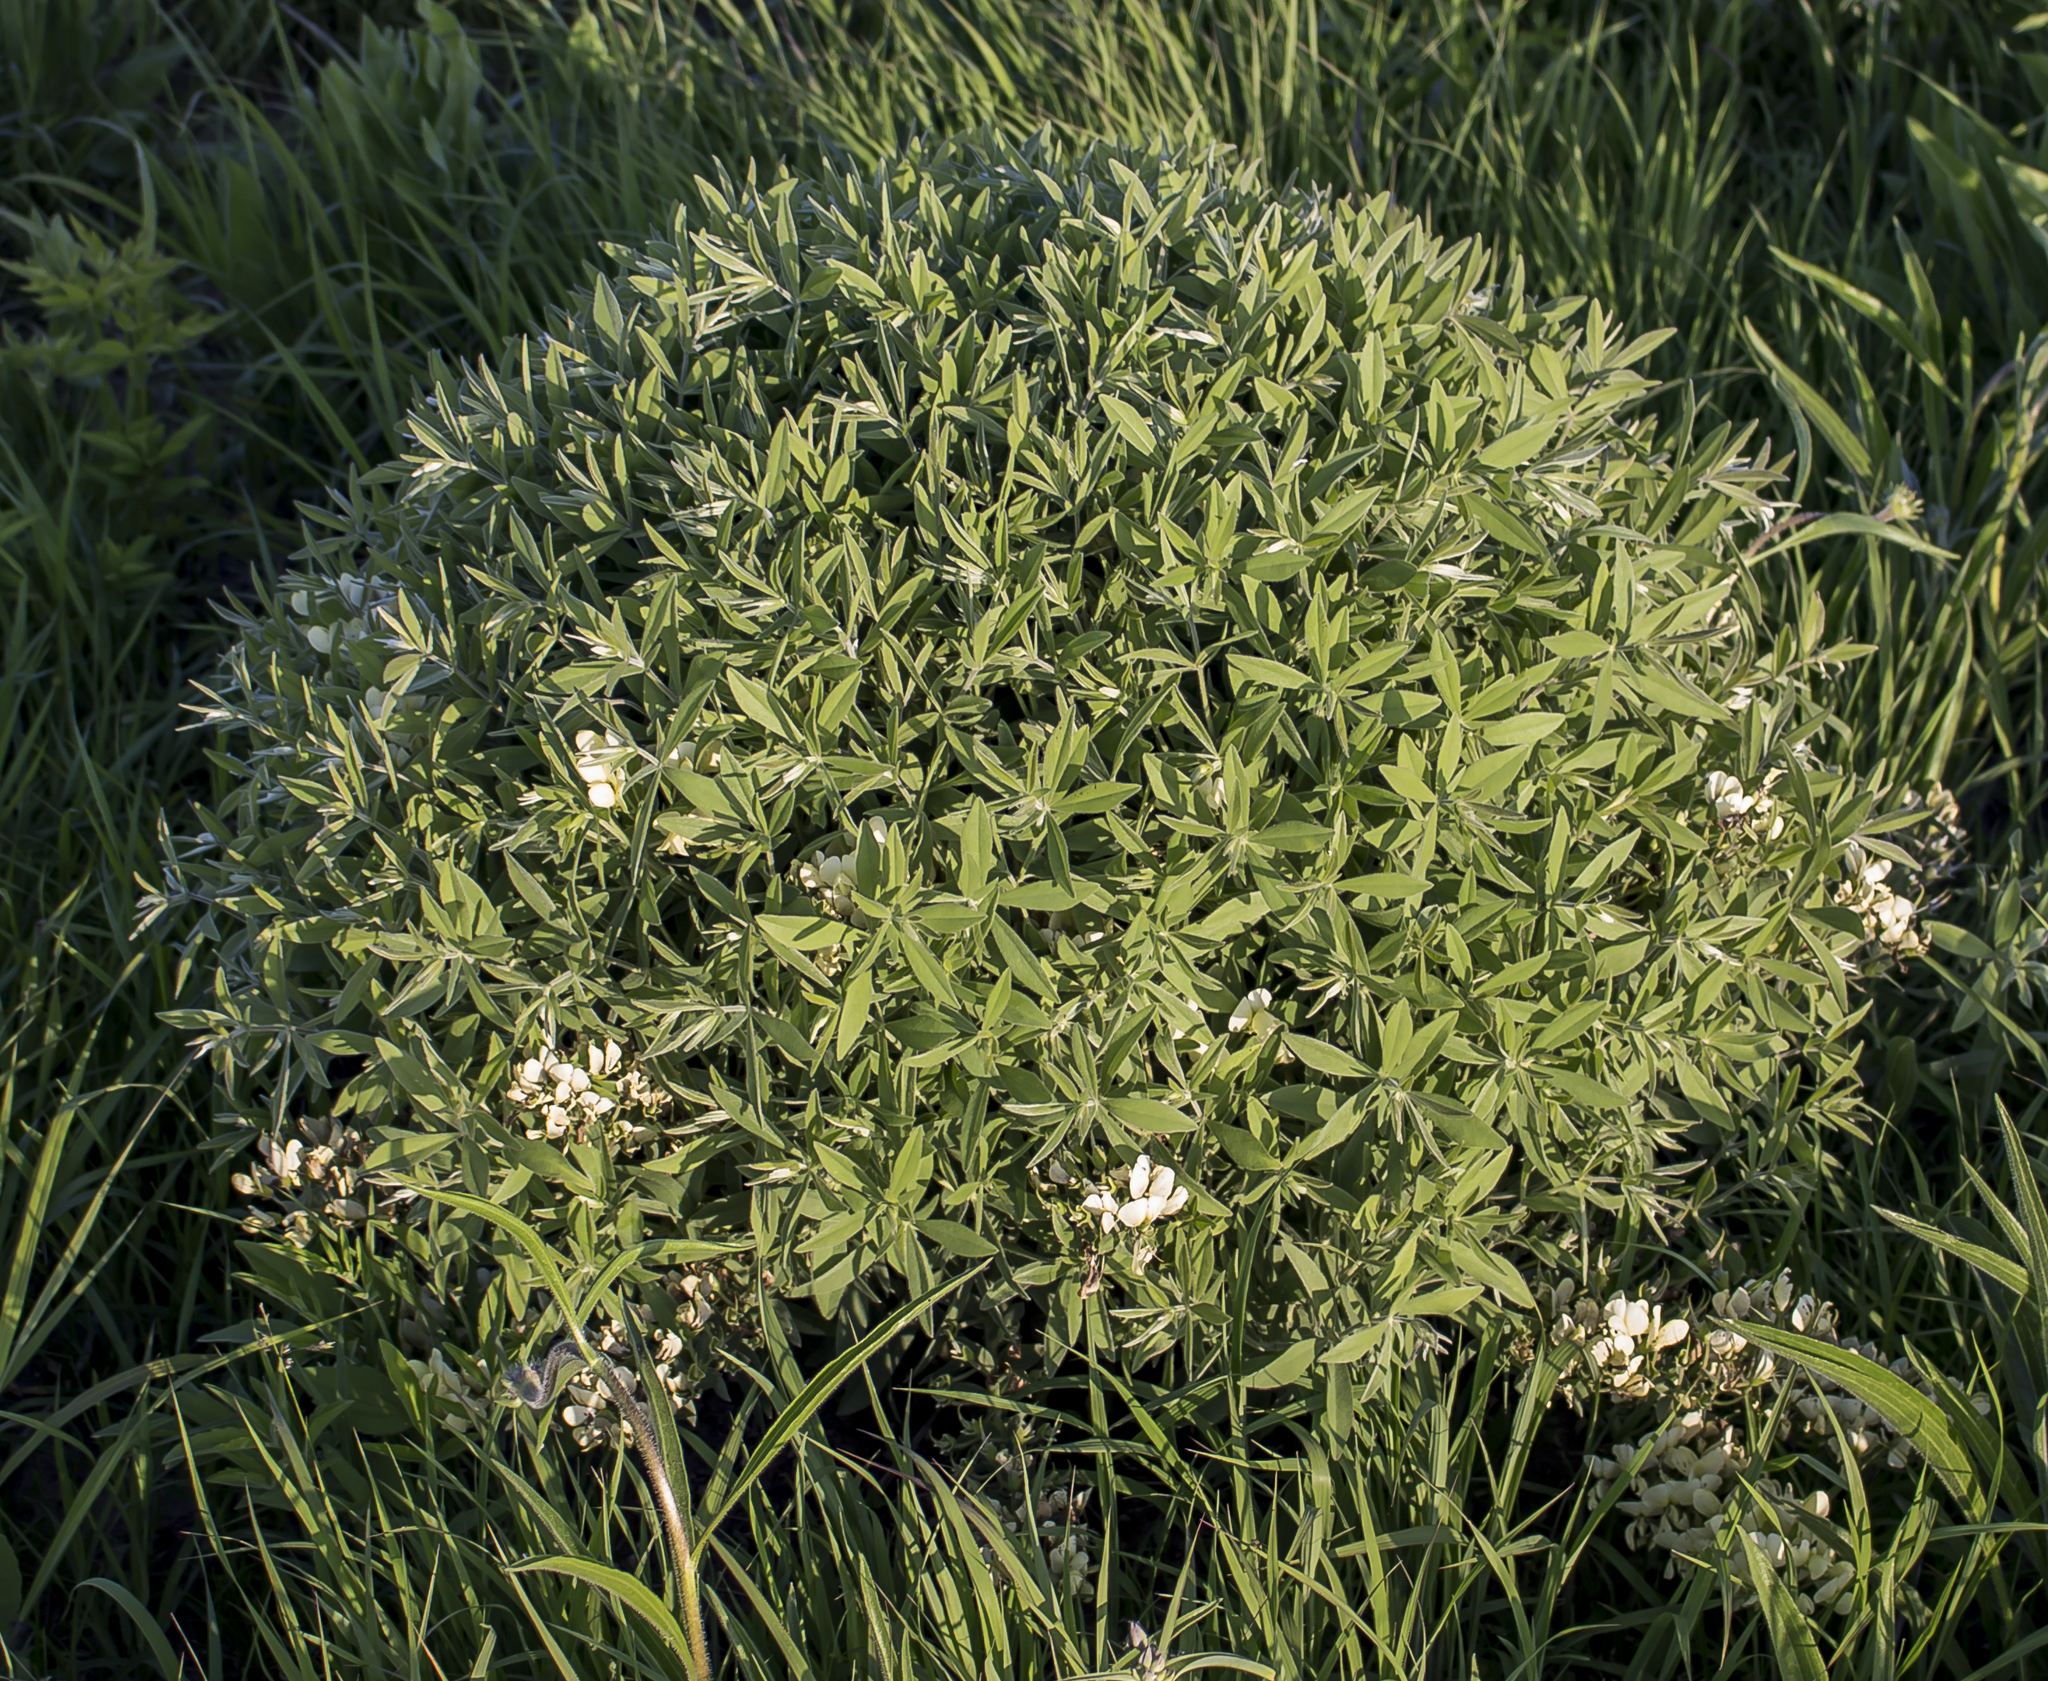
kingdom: Plantae
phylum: Tracheophyta
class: Magnoliopsida
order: Fabales
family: Fabaceae
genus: Baptisia
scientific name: Baptisia bracteata
